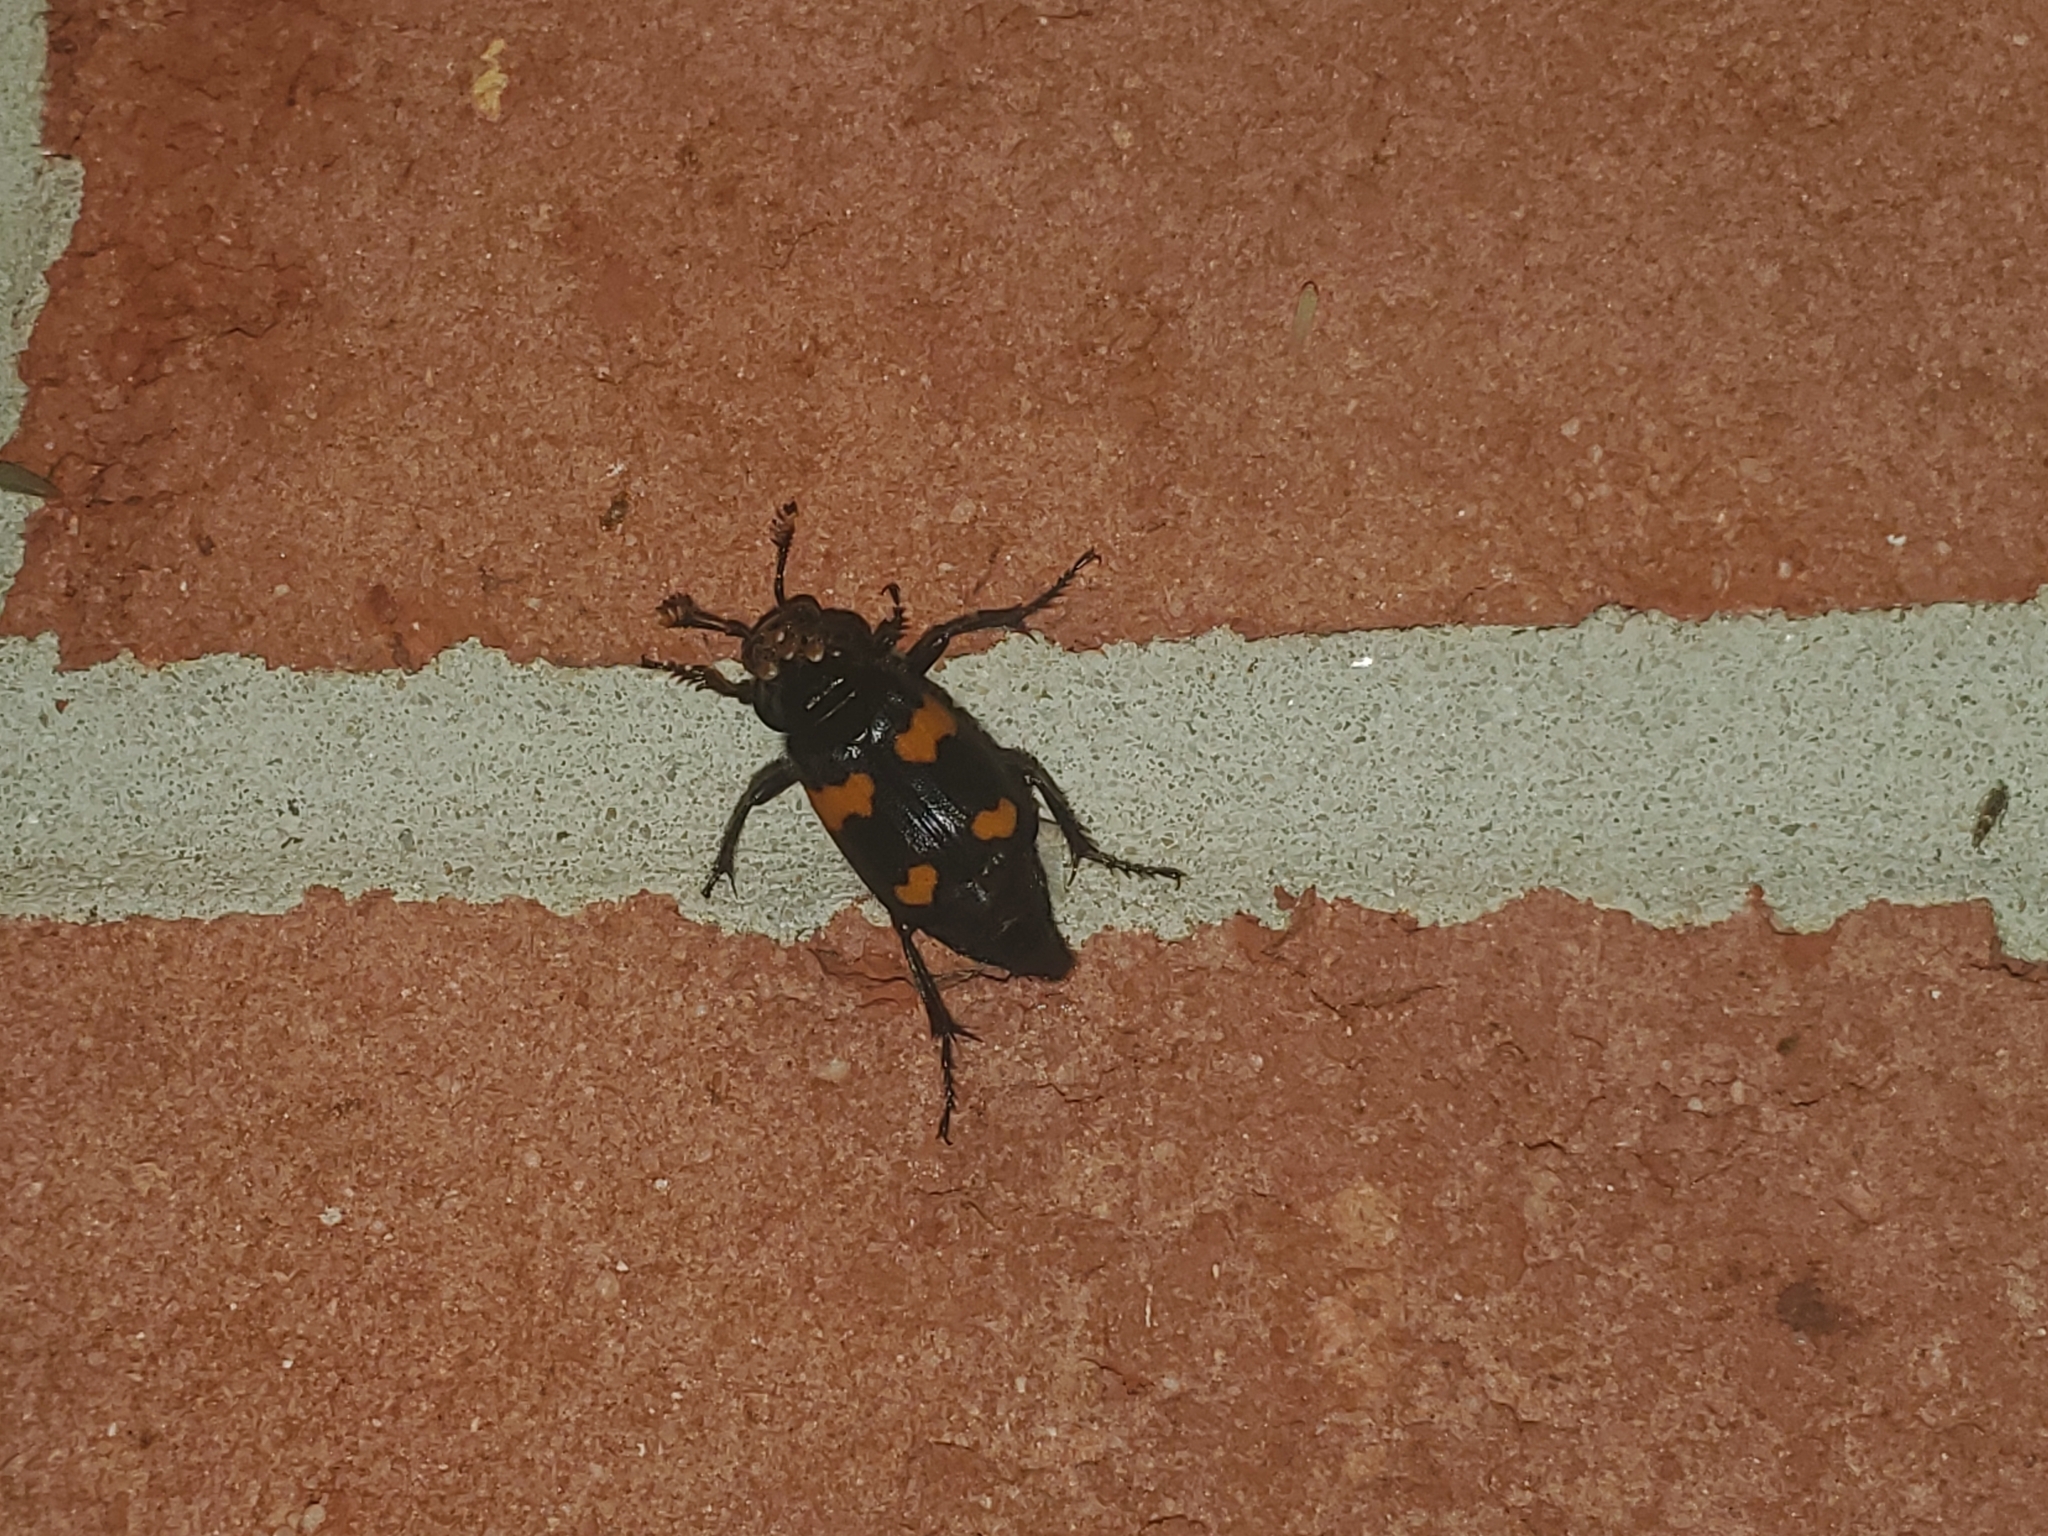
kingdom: Animalia
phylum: Arthropoda
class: Insecta
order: Coleoptera
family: Staphylinidae
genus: Nicrophorus
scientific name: Nicrophorus orbicollis
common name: Roundneck sexton beetle
